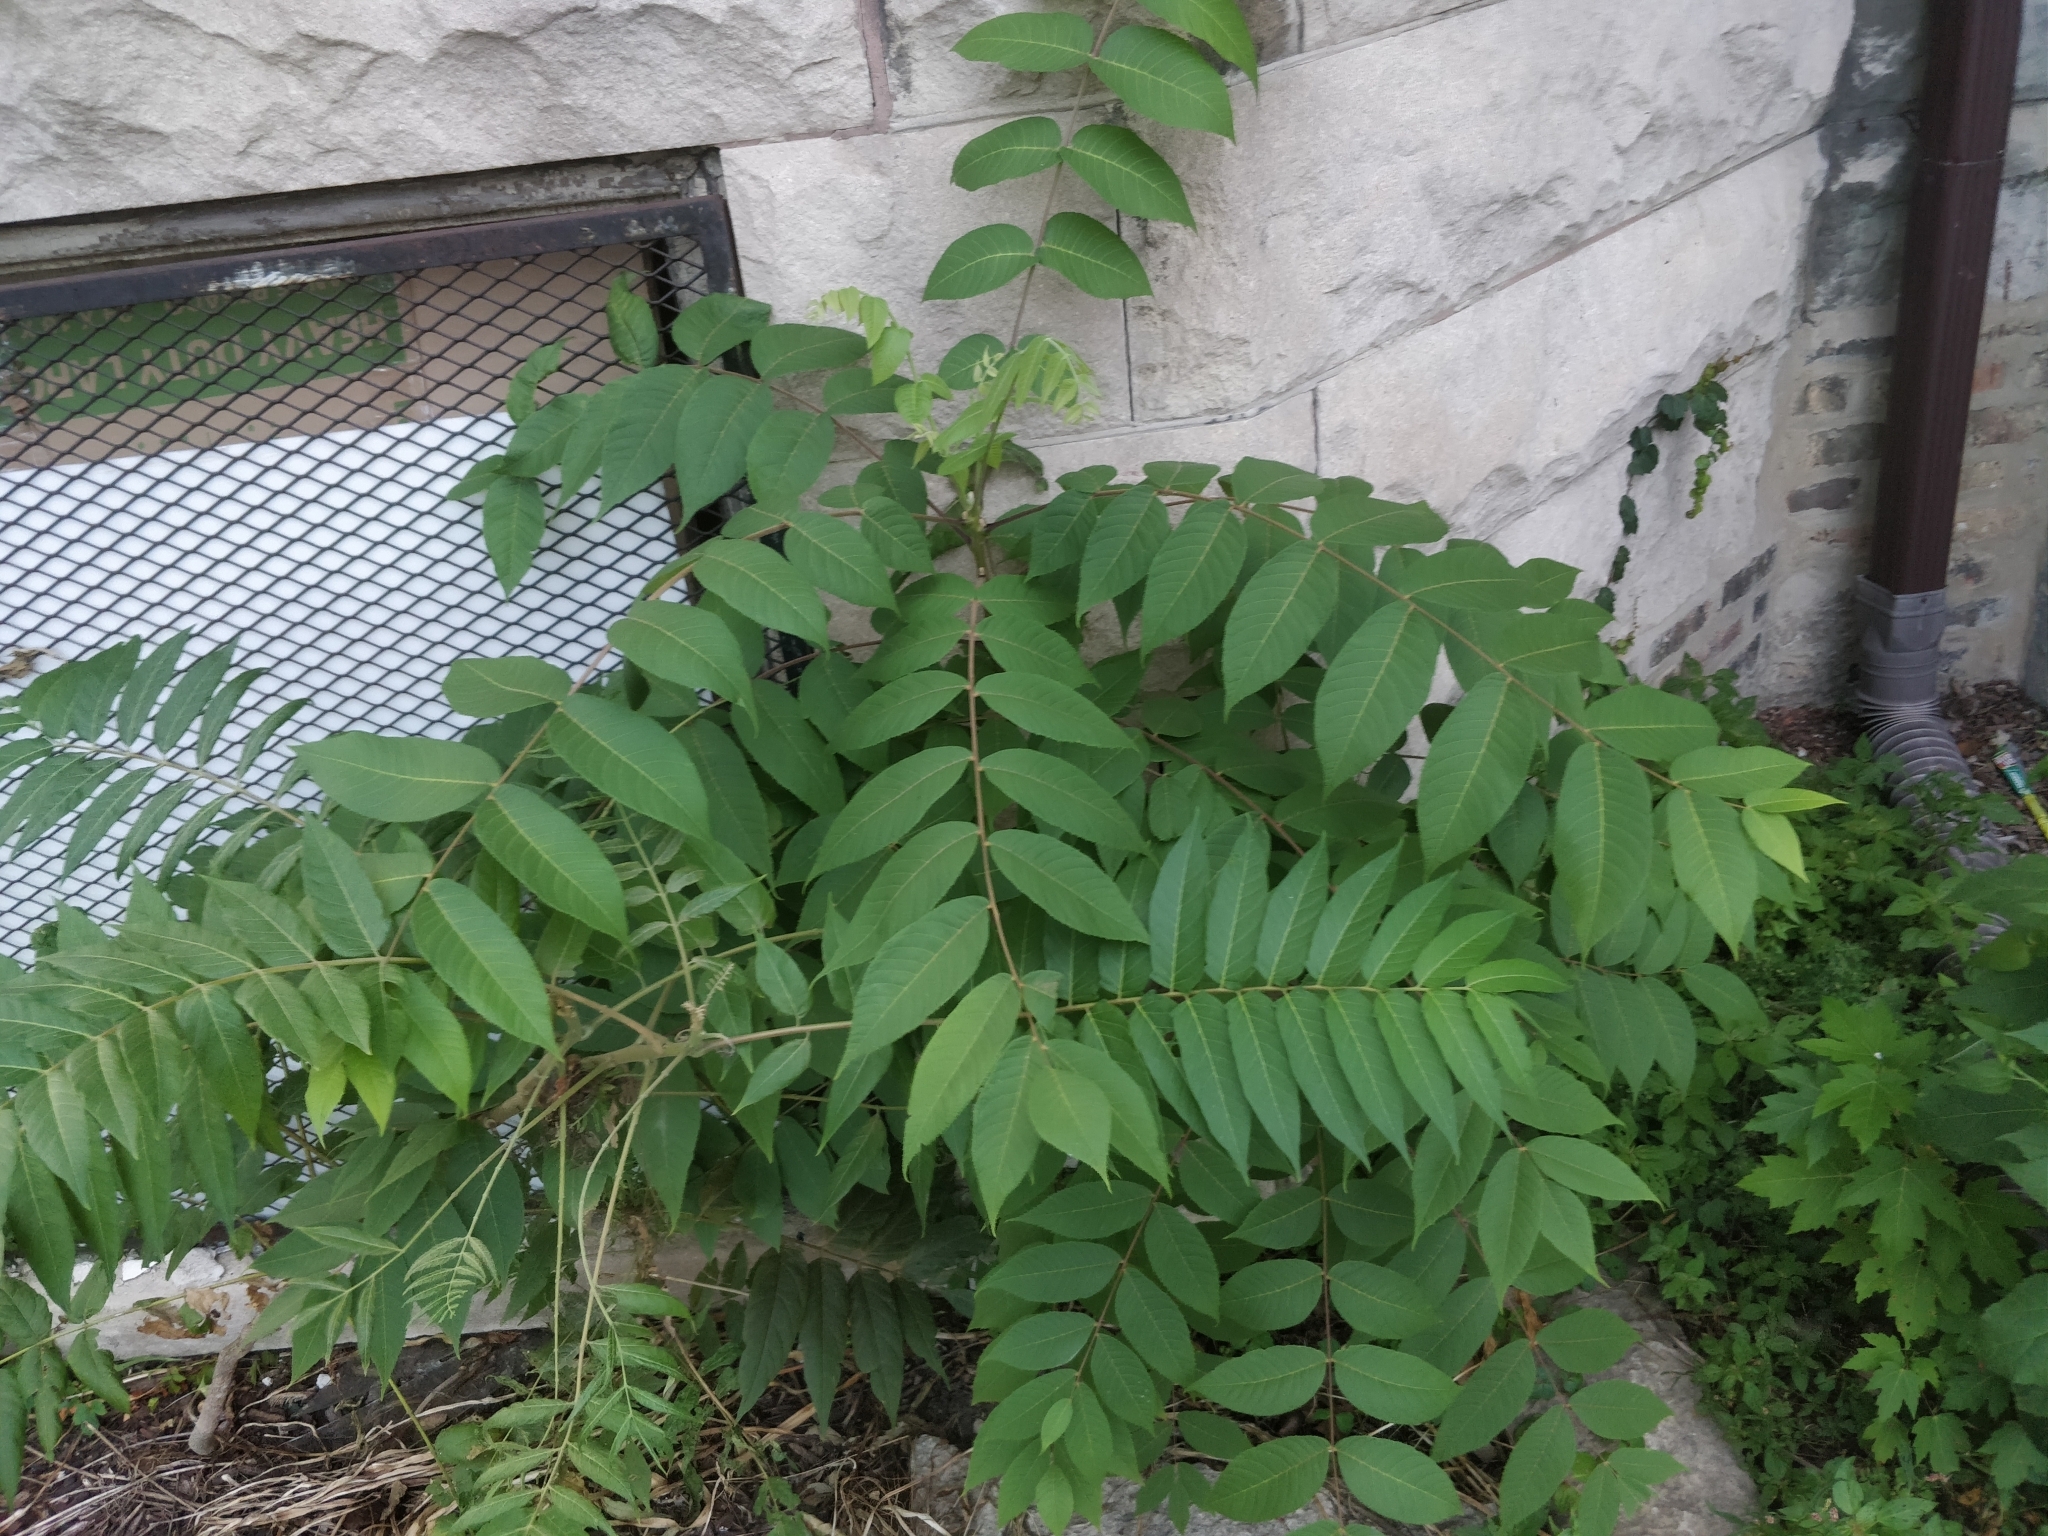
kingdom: Plantae
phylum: Tracheophyta
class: Magnoliopsida
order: Sapindales
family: Simaroubaceae
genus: Ailanthus
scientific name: Ailanthus altissima
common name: Tree-of-heaven
